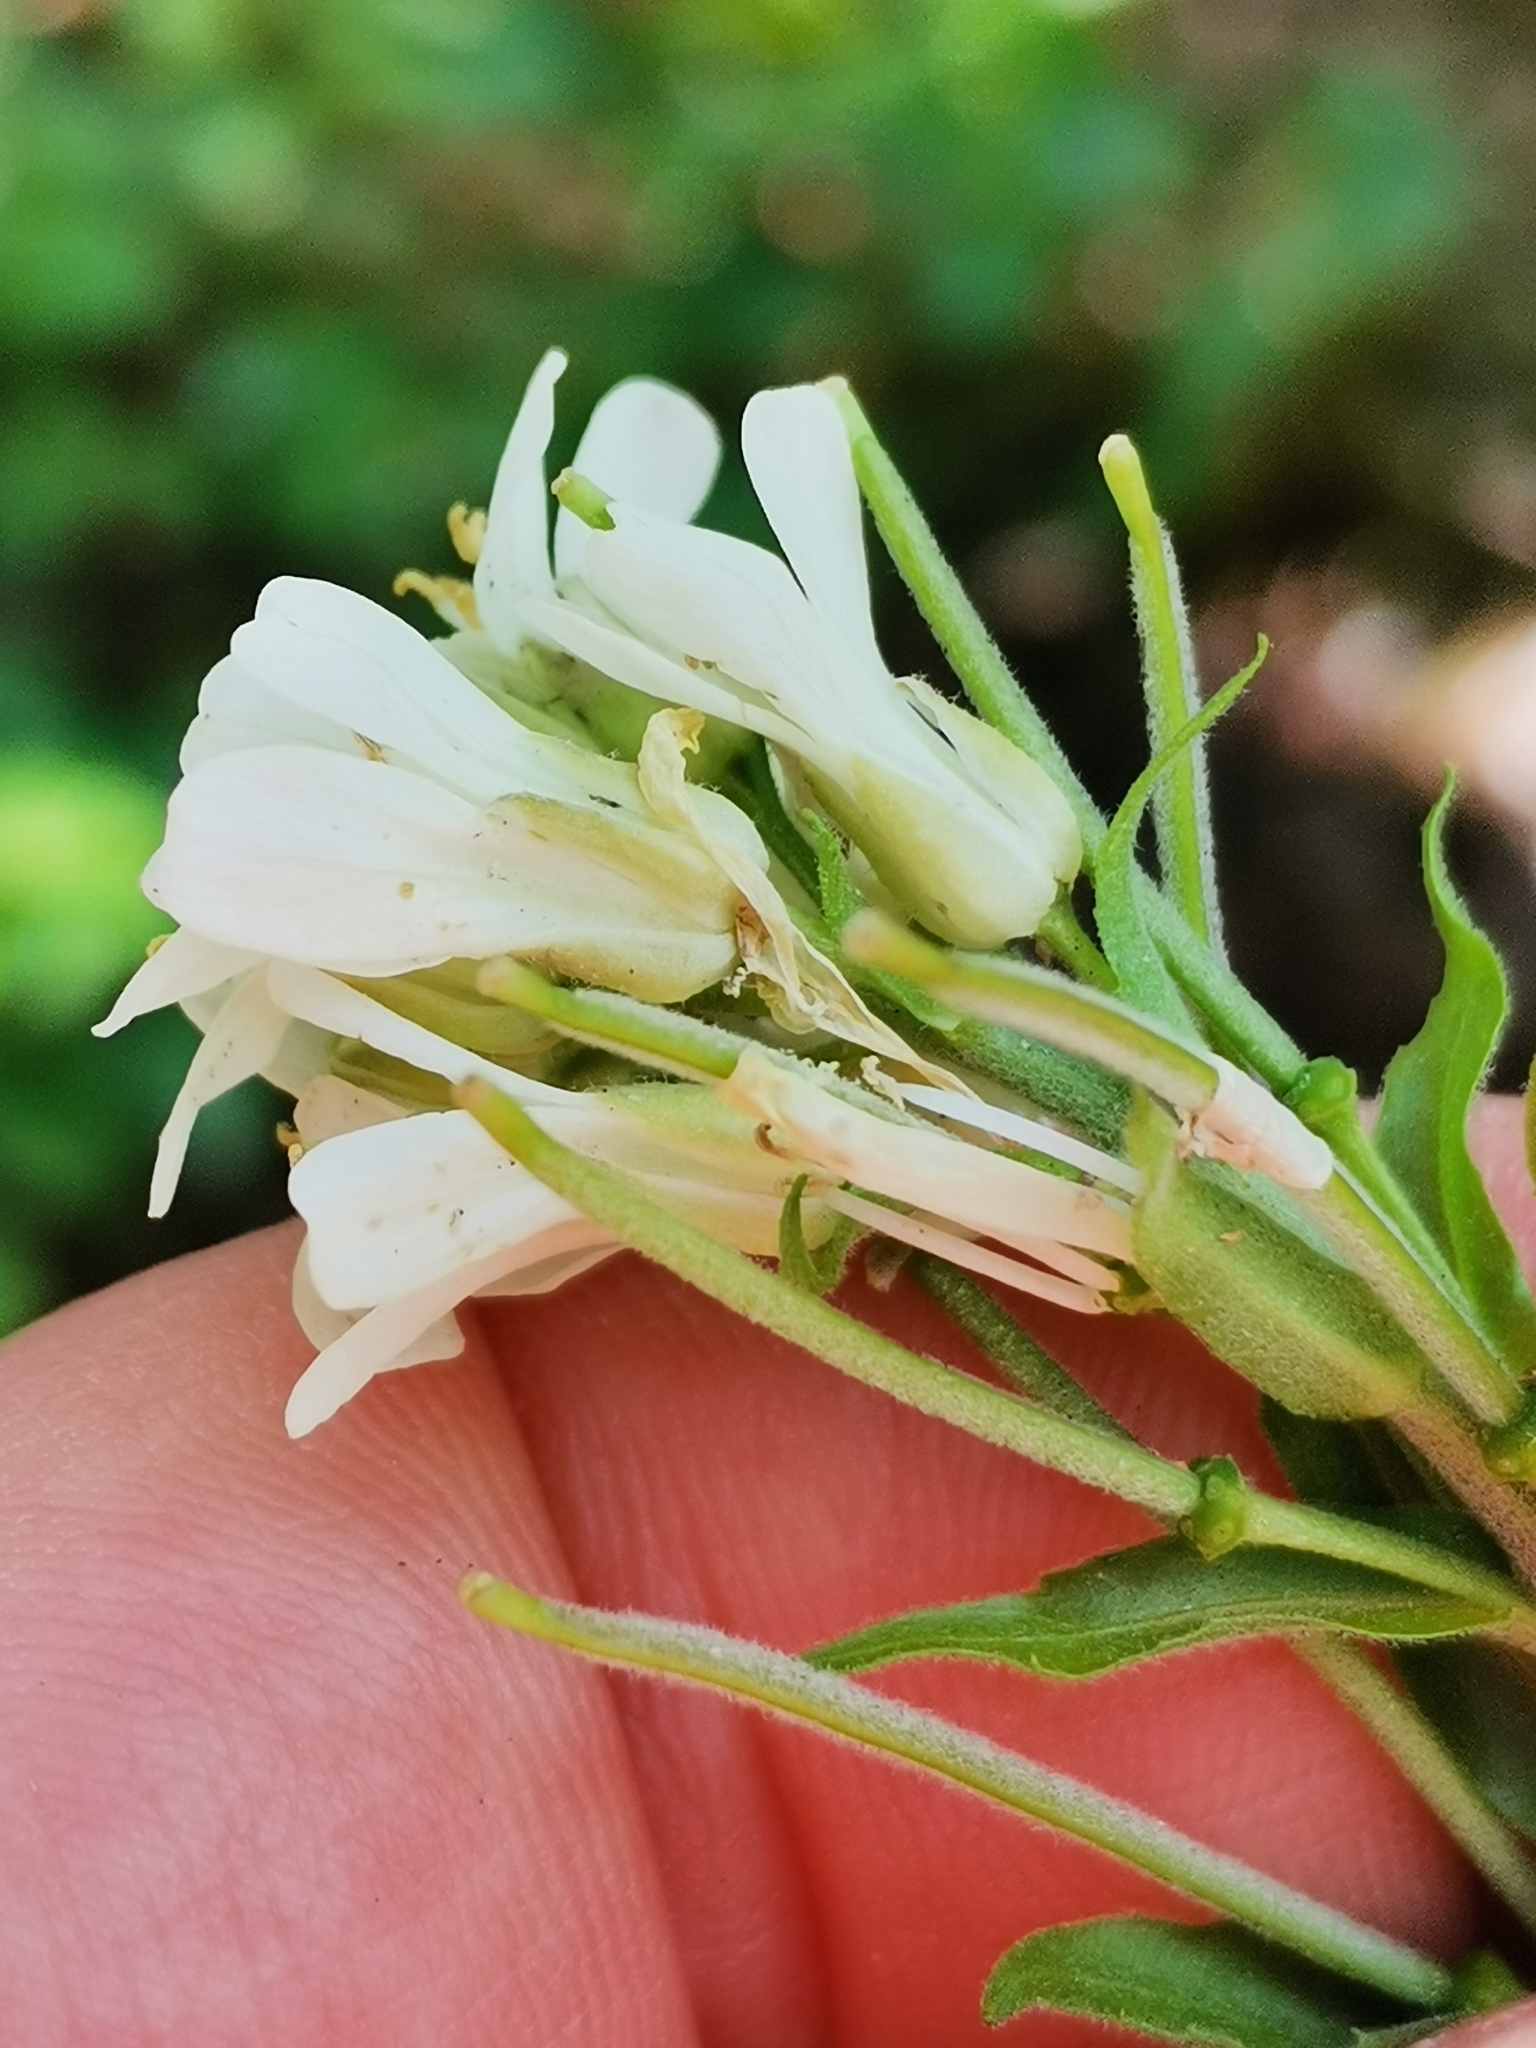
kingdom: Plantae
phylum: Tracheophyta
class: Magnoliopsida
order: Brassicales
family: Brassicaceae
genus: Pseudoturritis
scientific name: Pseudoturritis turrita
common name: Tower cress
